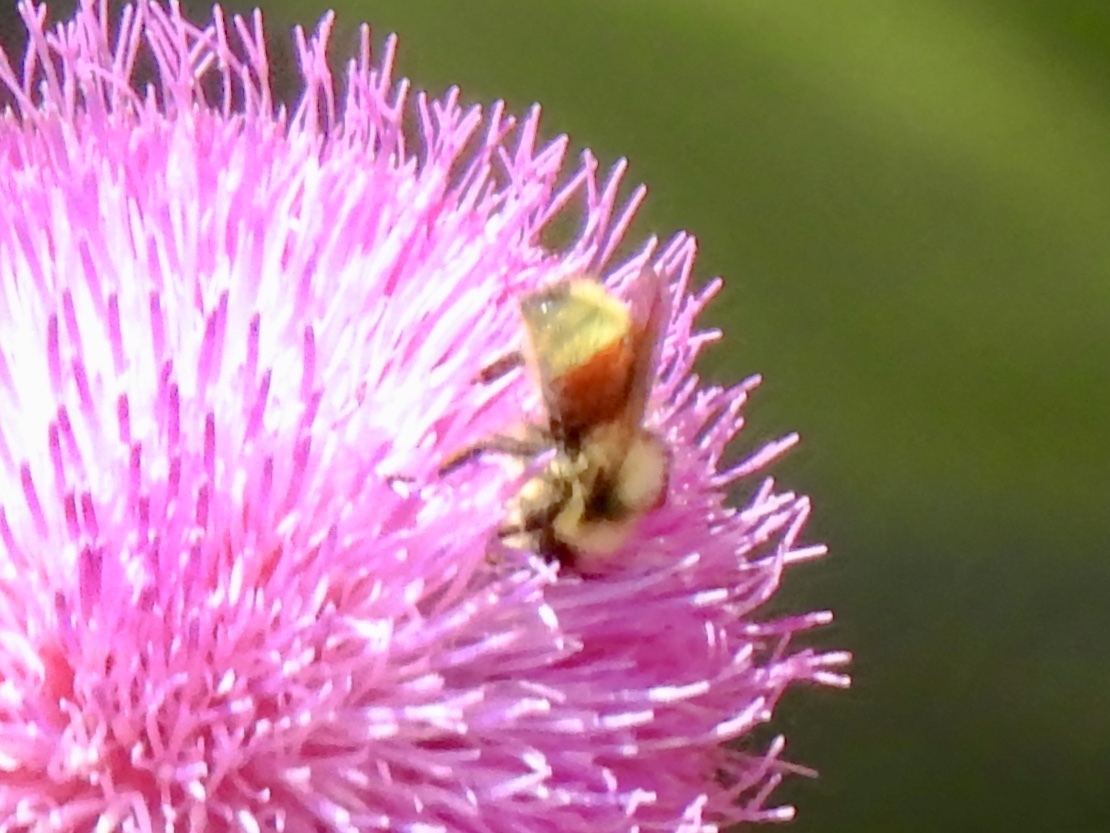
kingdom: Animalia
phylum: Arthropoda
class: Insecta
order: Hymenoptera
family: Apidae
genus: Bombus
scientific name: Bombus huntii
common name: Hunt bumble bee
